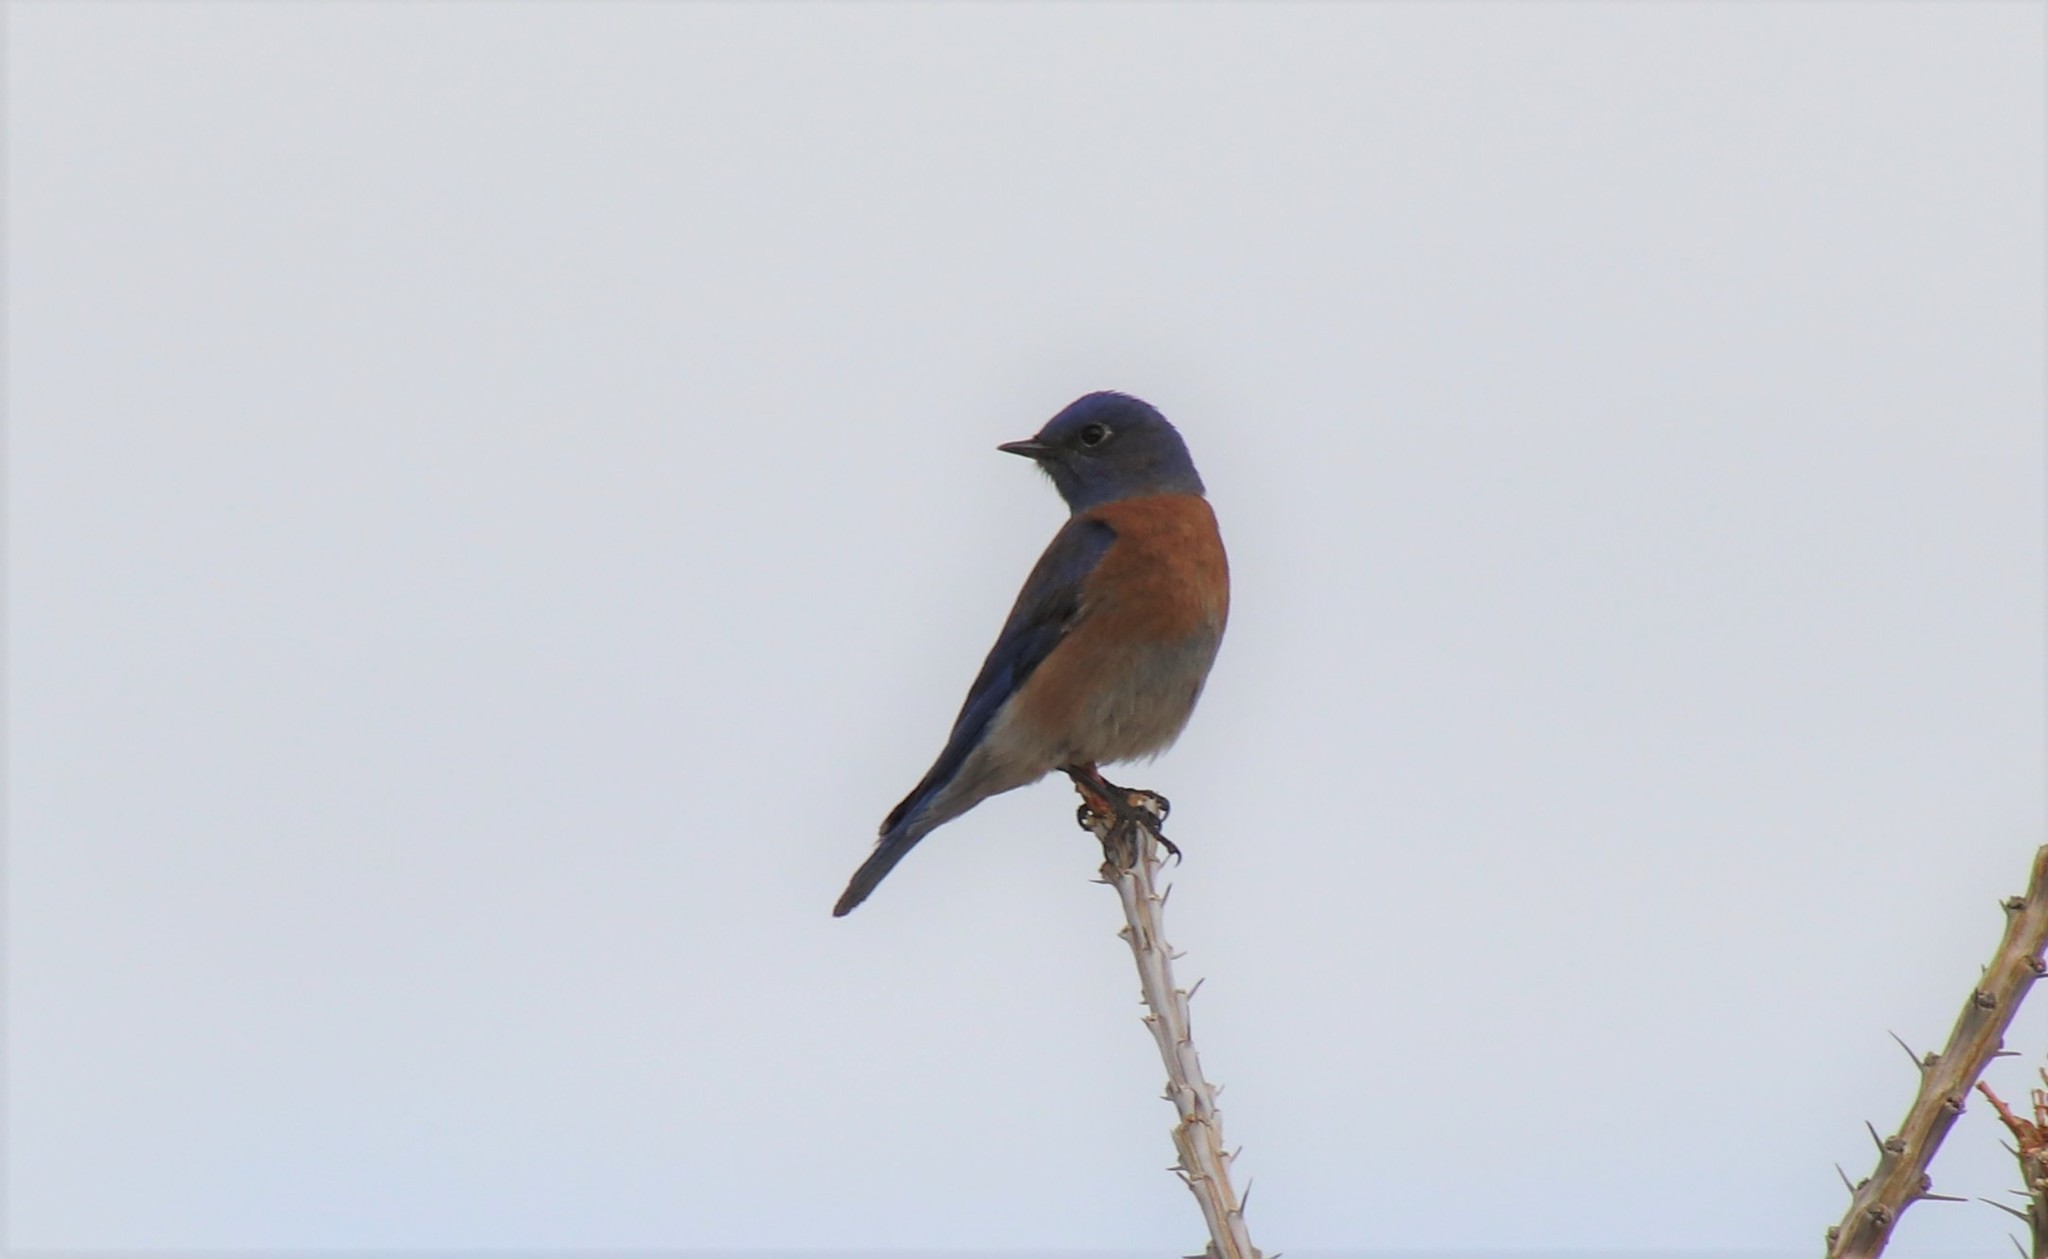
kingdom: Animalia
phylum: Chordata
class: Aves
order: Passeriformes
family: Turdidae
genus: Sialia
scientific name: Sialia mexicana
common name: Western bluebird
